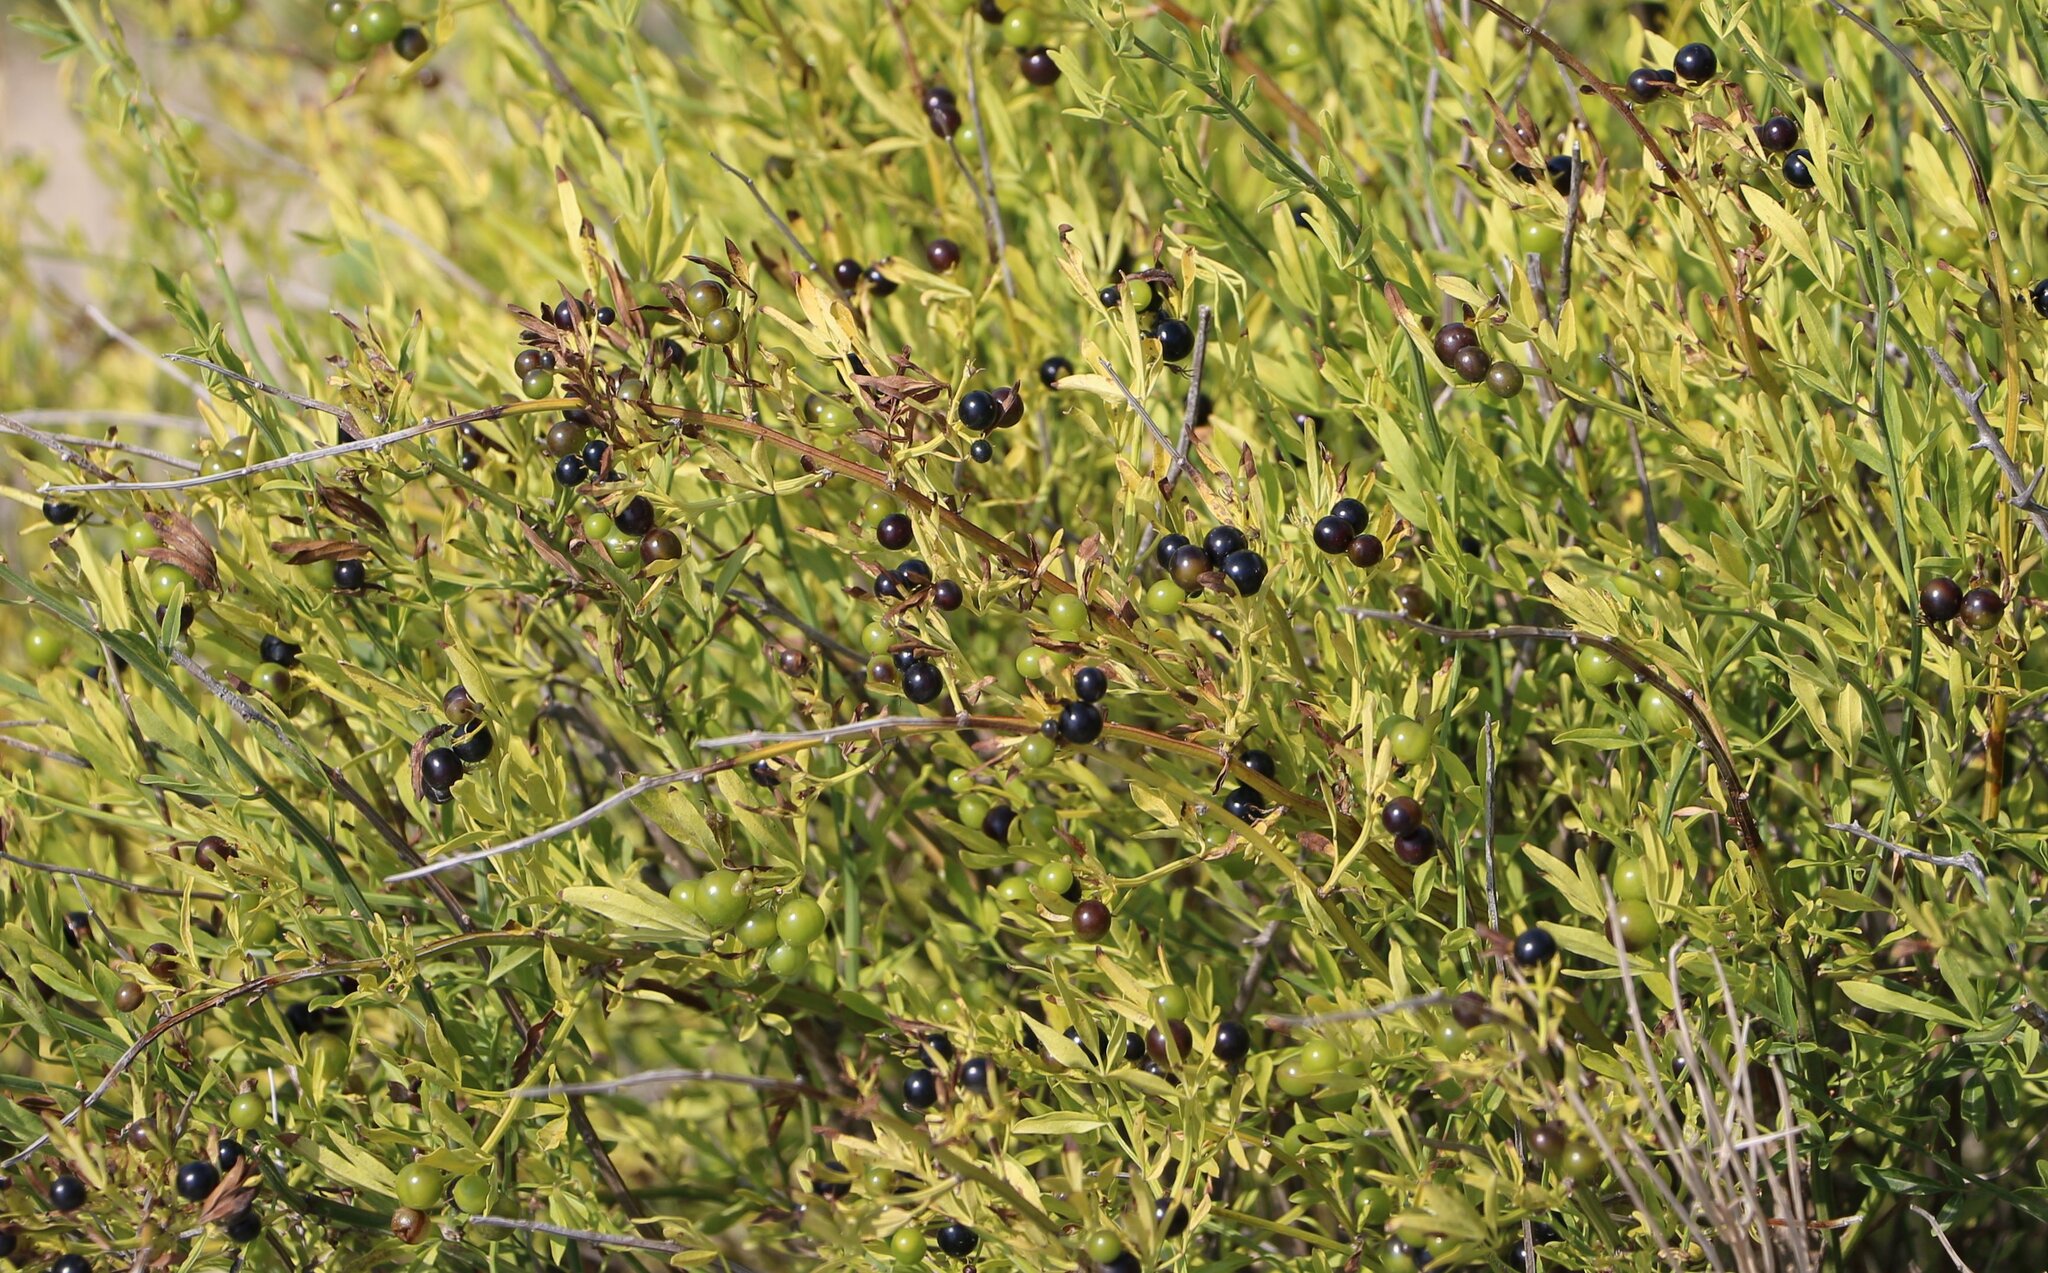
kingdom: Plantae
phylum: Tracheophyta
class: Magnoliopsida
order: Lamiales
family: Oleaceae
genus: Chrysojasminum
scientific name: Chrysojasminum fruticans
